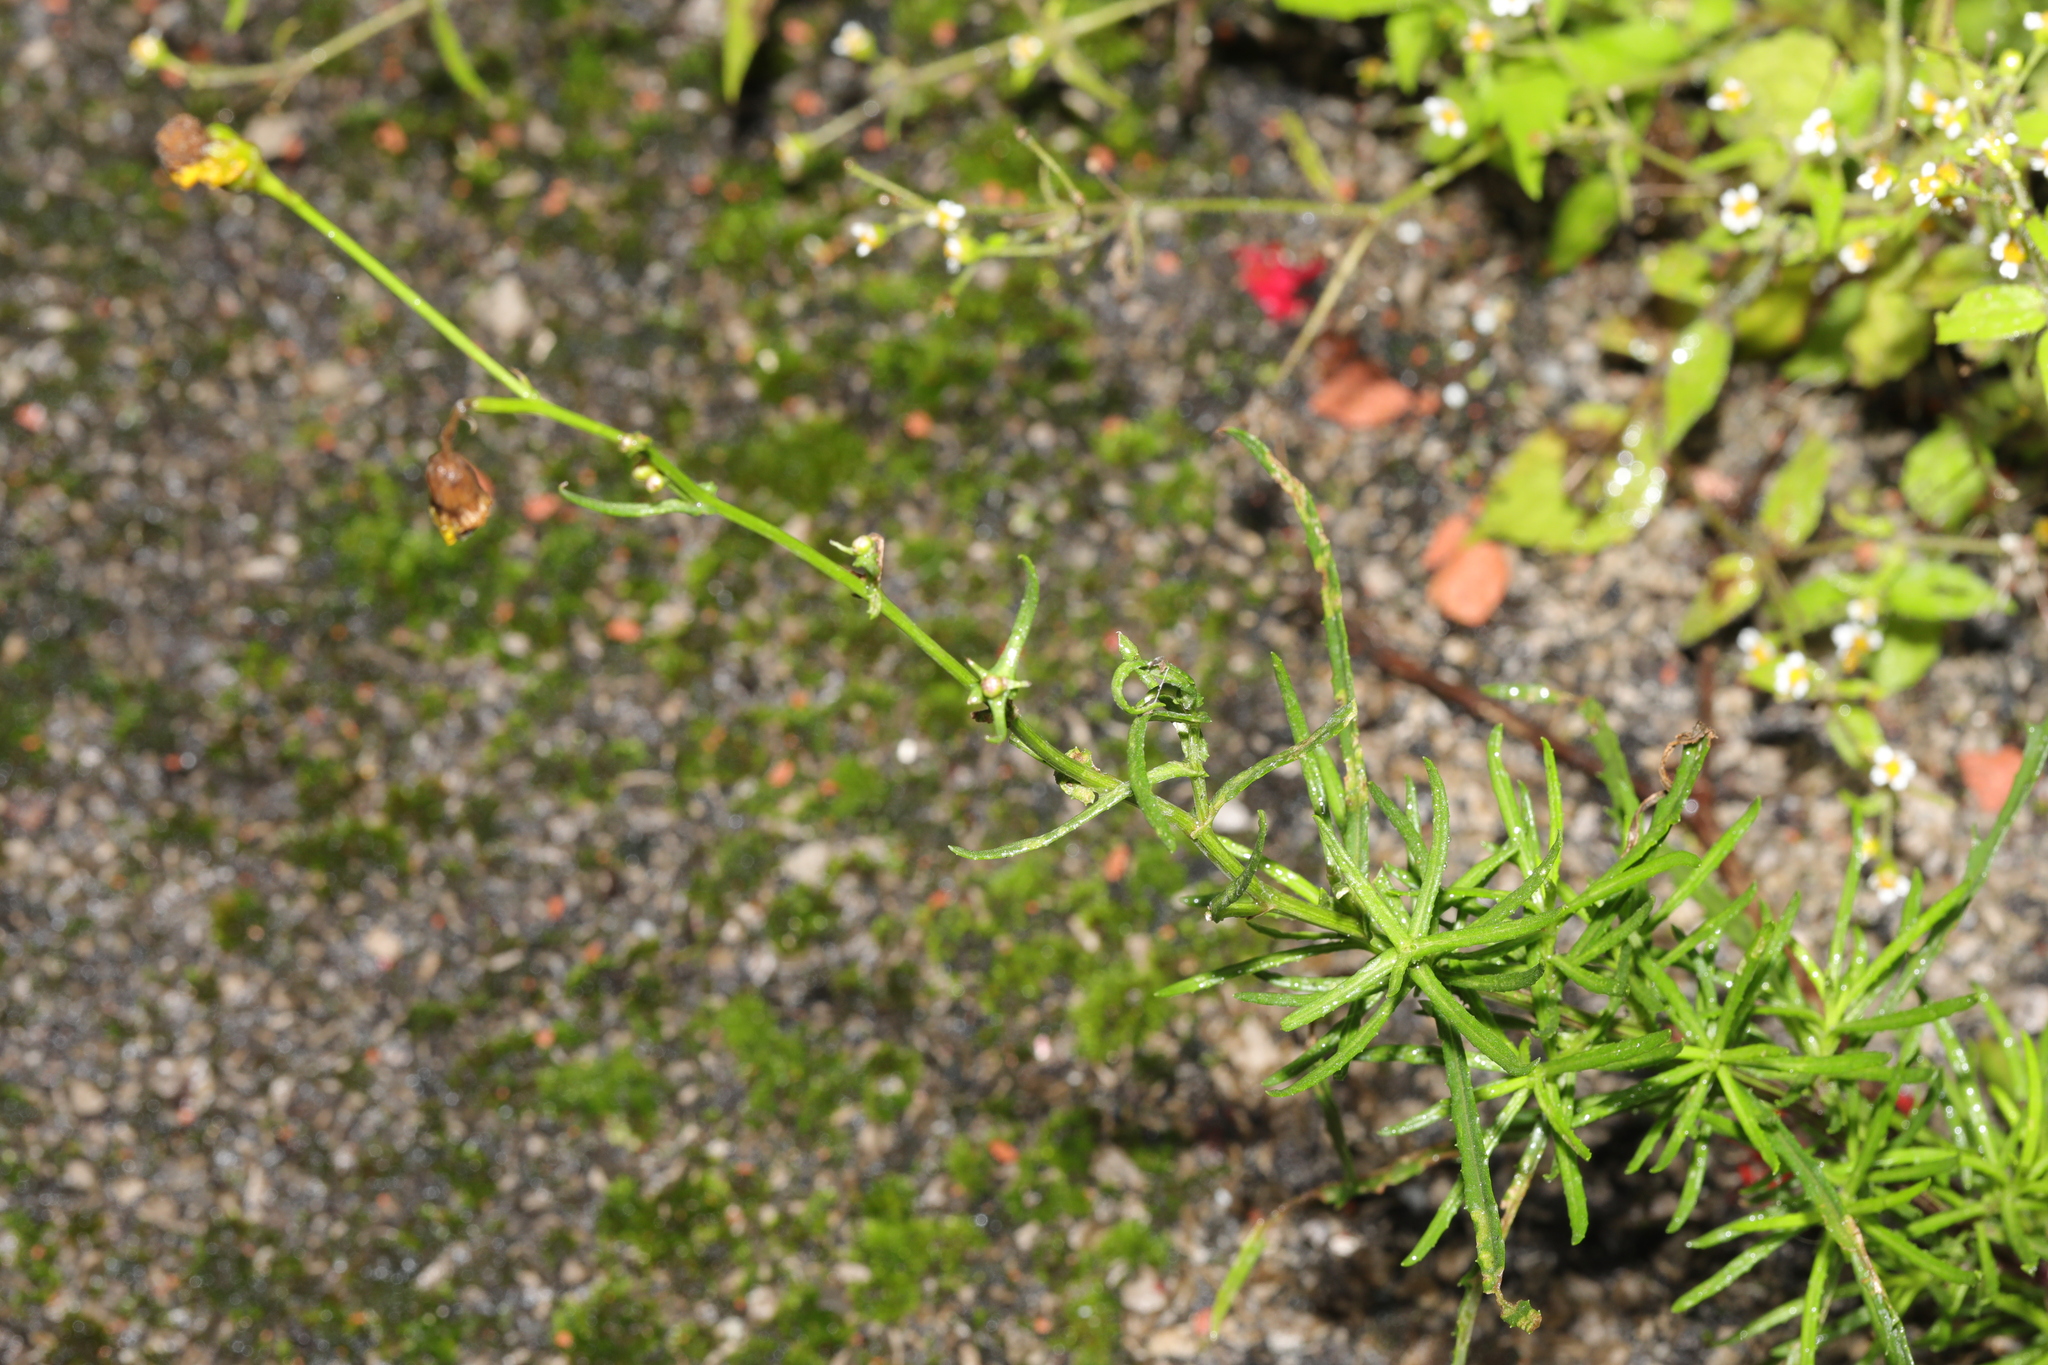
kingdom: Plantae
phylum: Tracheophyta
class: Magnoliopsida
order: Asterales
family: Asteraceae
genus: Senecio
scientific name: Senecio inaequidens
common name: Narrow-leaved ragwort
